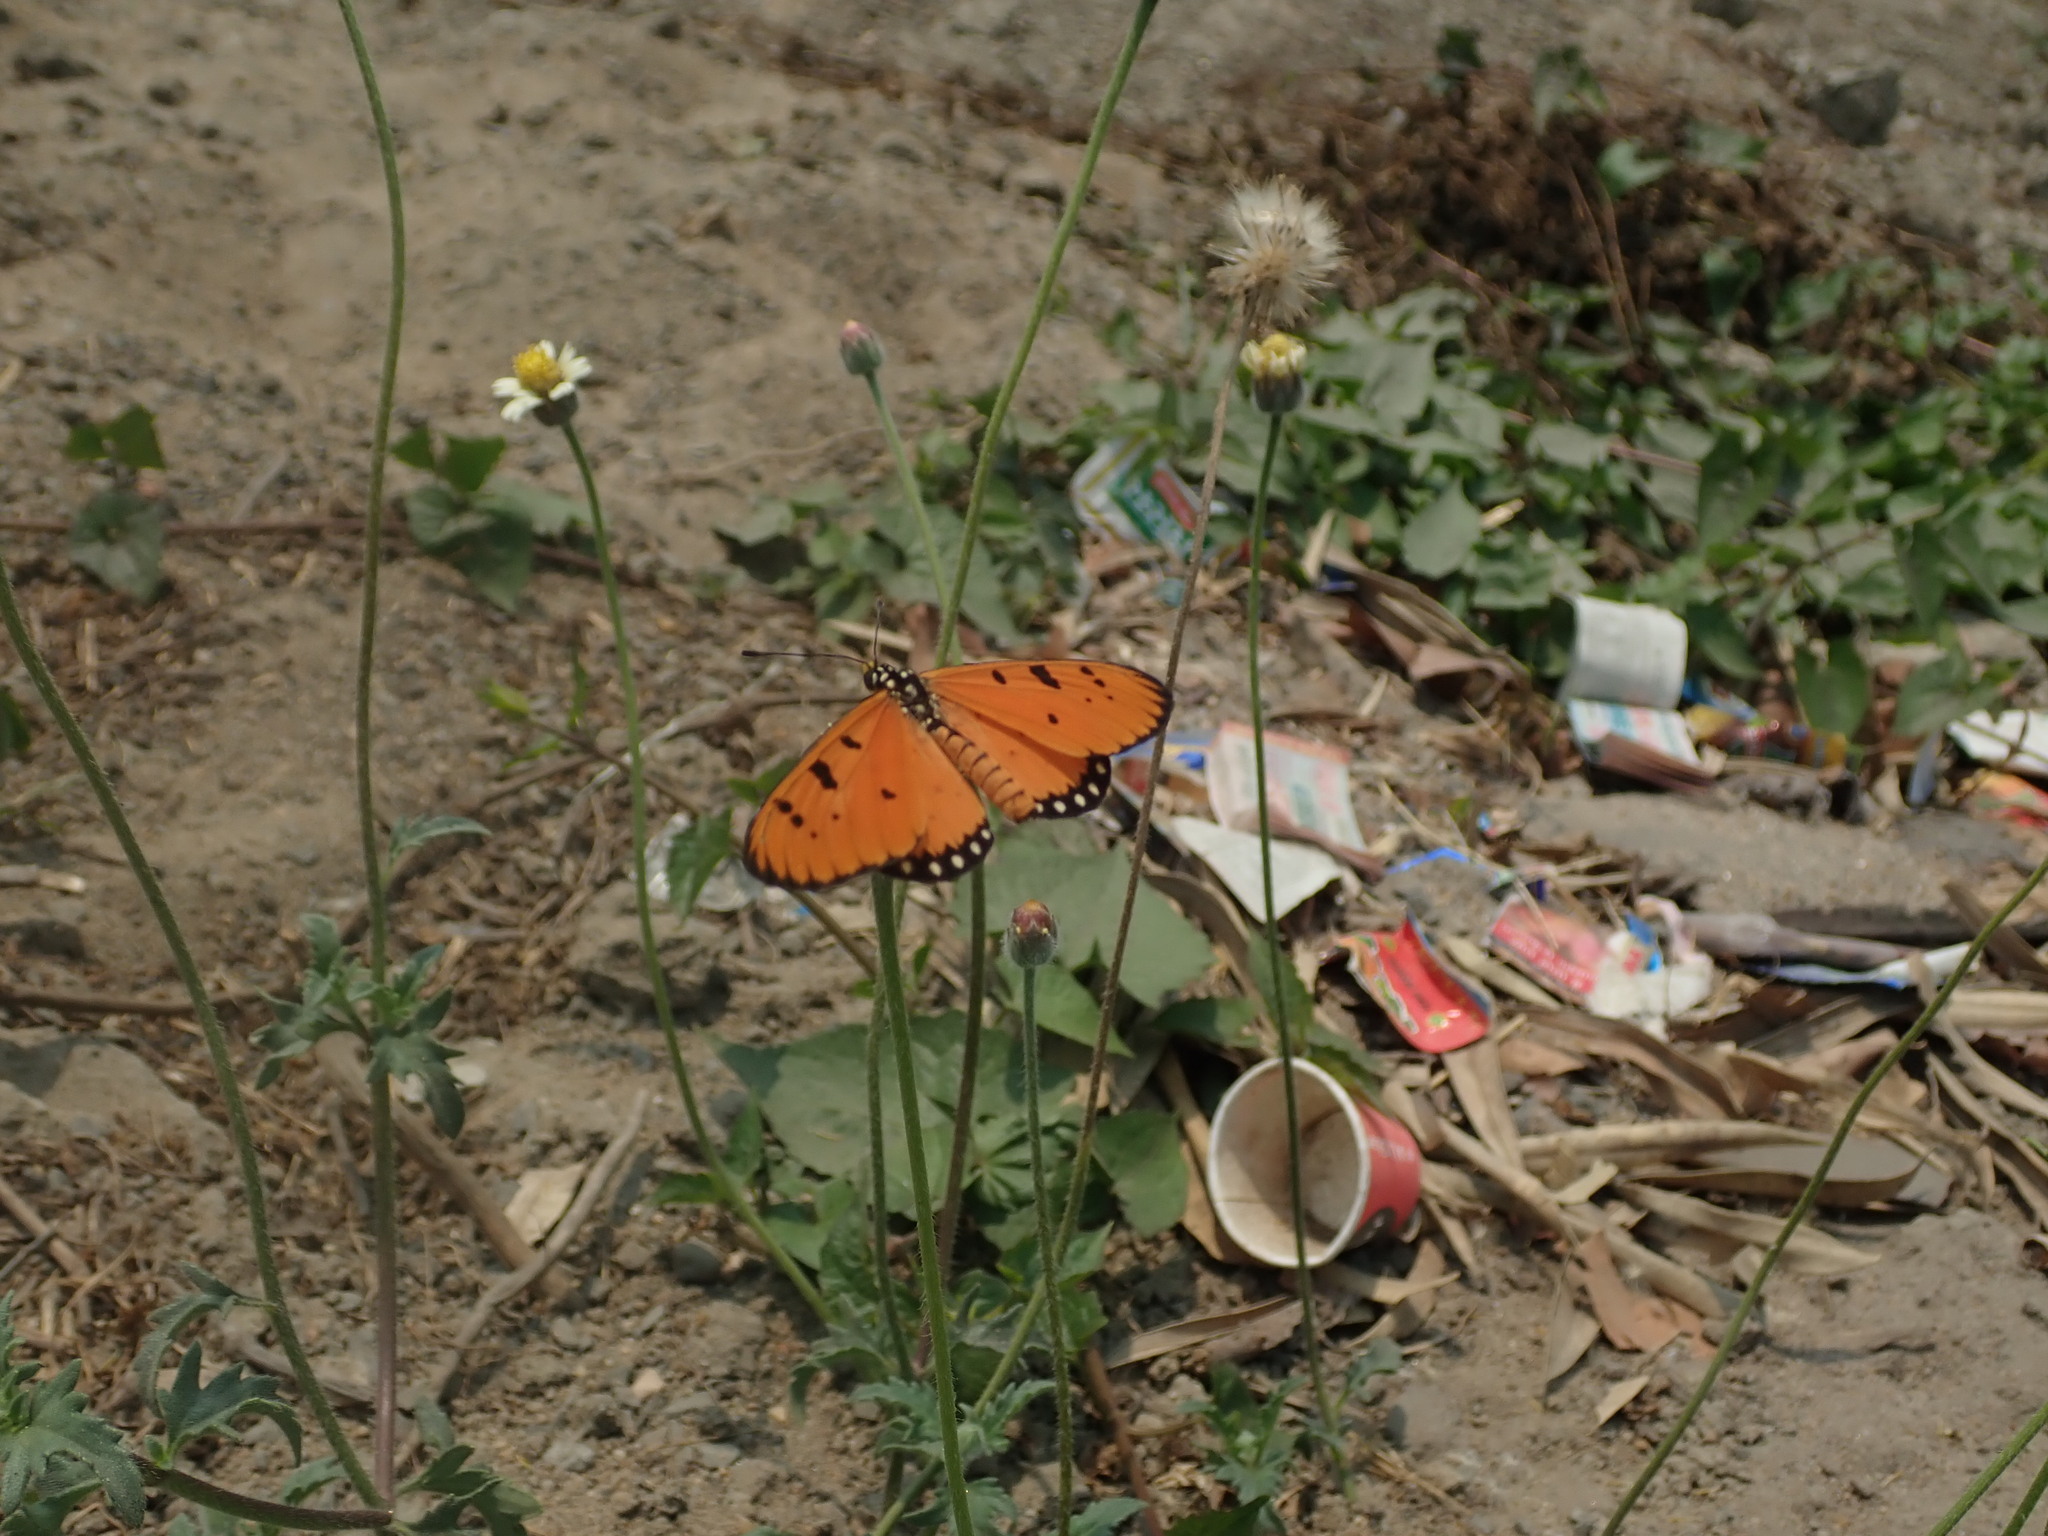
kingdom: Animalia
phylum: Arthropoda
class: Insecta
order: Lepidoptera
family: Nymphalidae
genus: Acraea
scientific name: Acraea terpsicore
